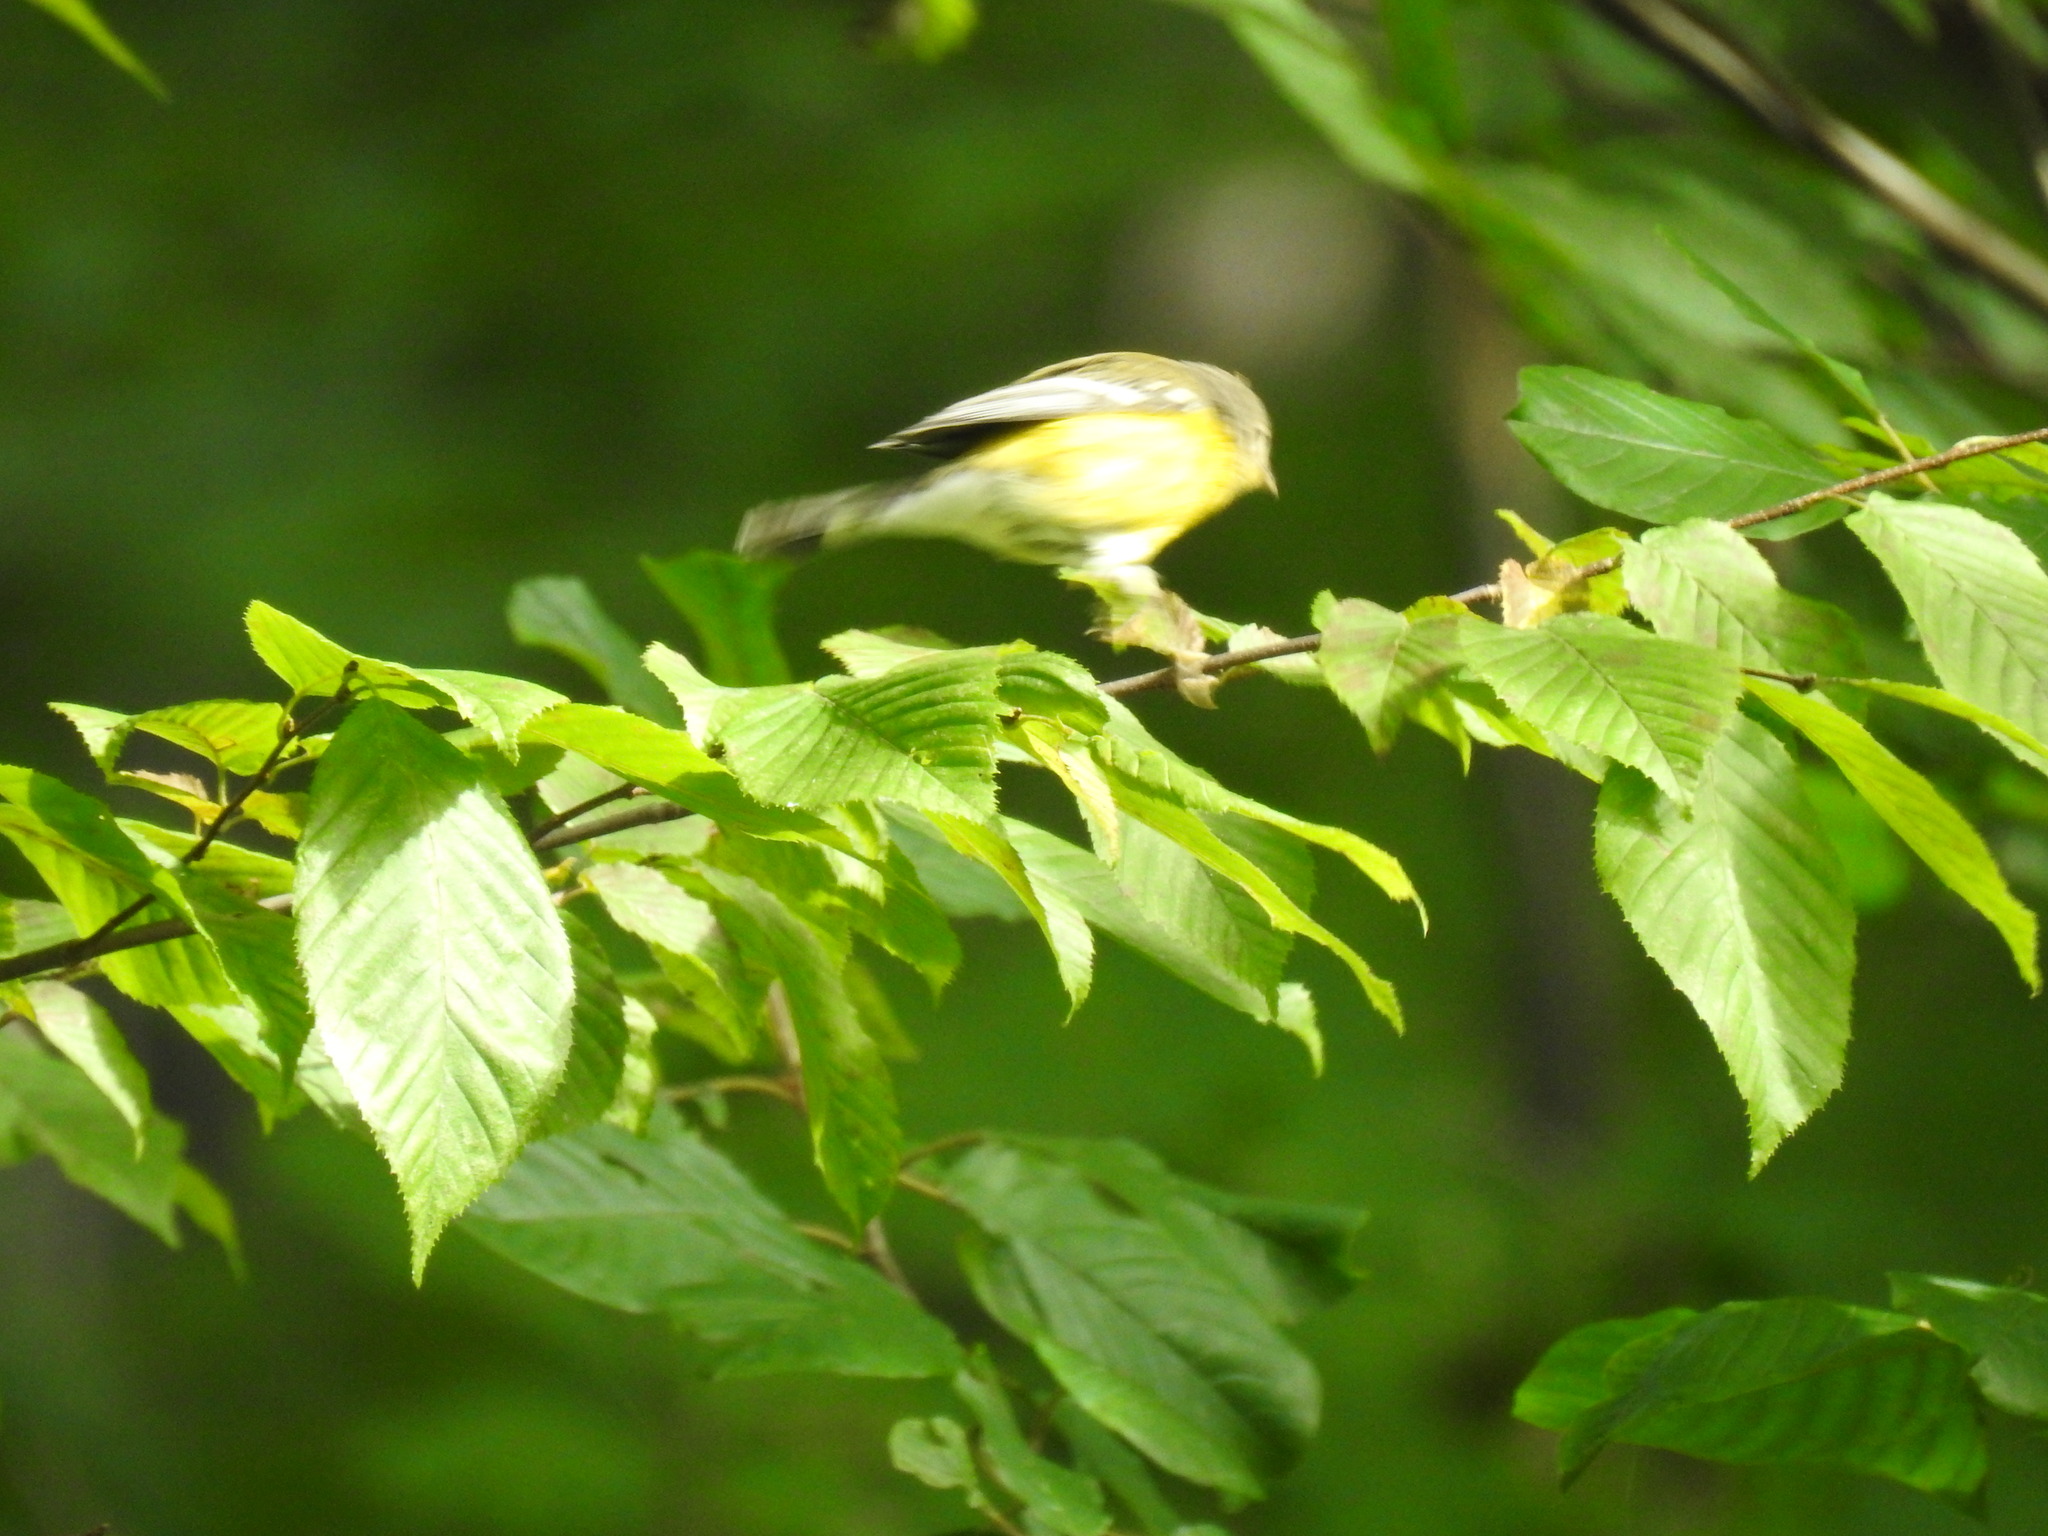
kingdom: Animalia
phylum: Chordata
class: Aves
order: Passeriformes
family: Parulidae
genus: Setophaga
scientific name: Setophaga magnolia
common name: Magnolia warbler
